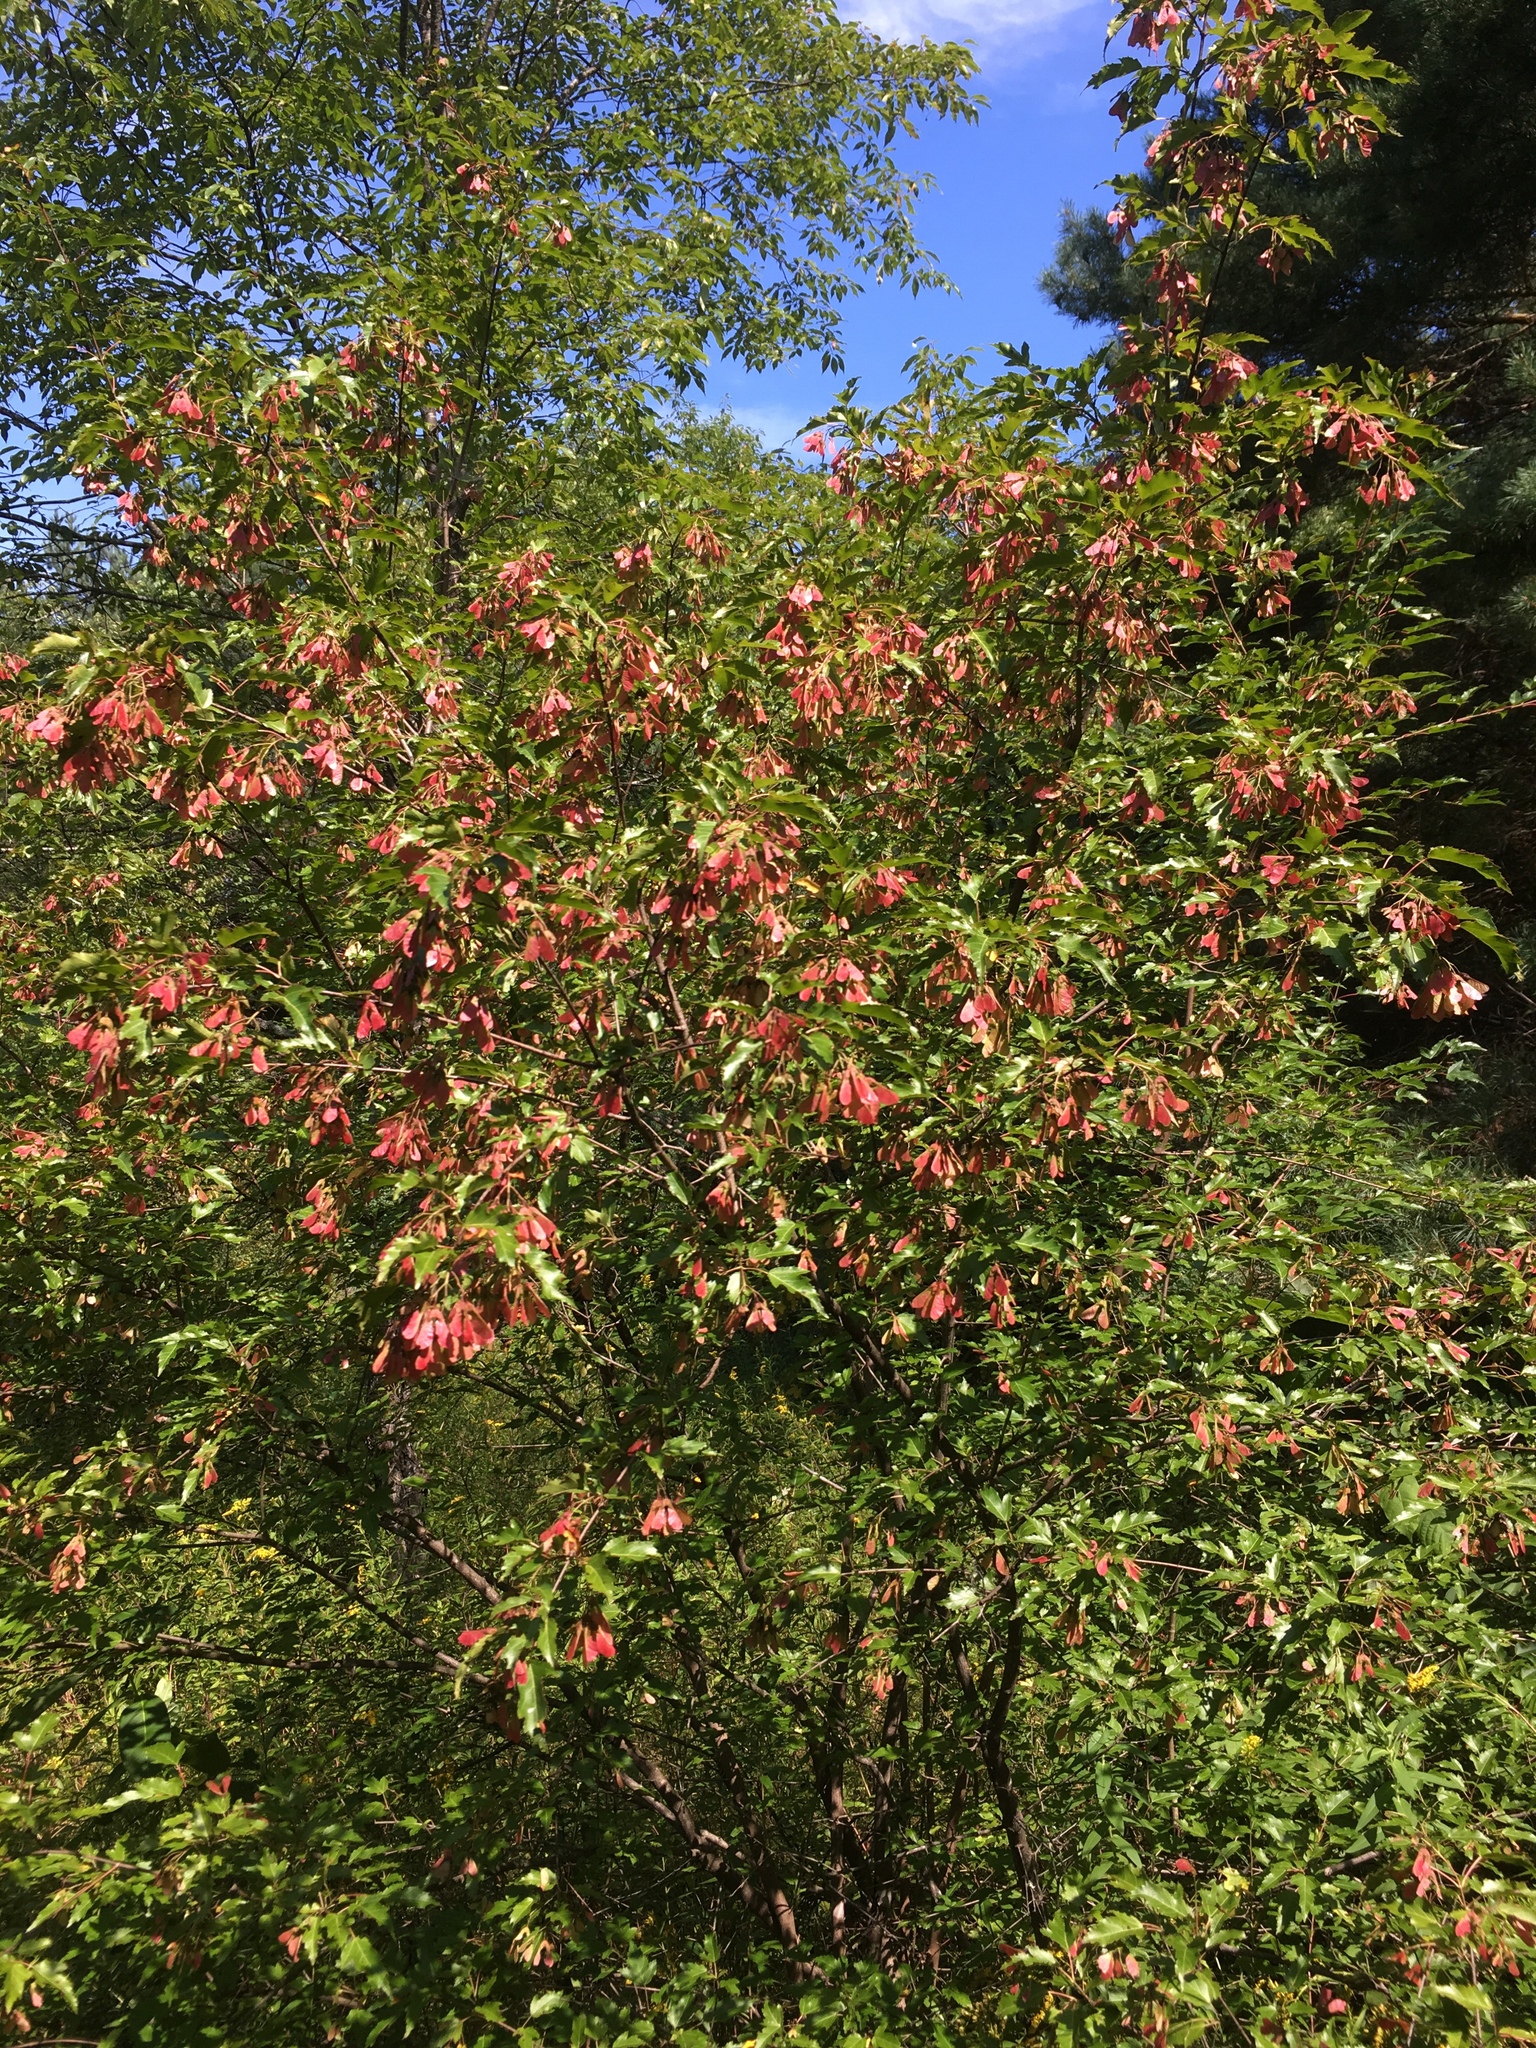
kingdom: Plantae
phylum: Tracheophyta
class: Magnoliopsida
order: Sapindales
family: Sapindaceae
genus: Acer
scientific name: Acer tataricum
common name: Tartar maple
